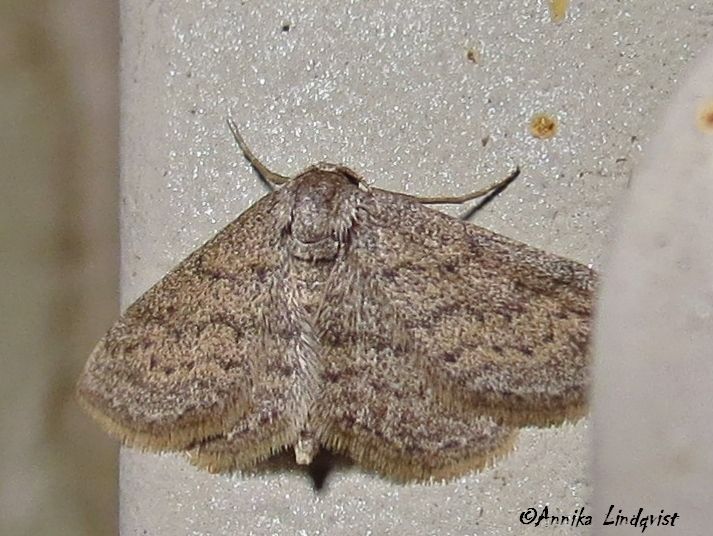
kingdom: Animalia
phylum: Arthropoda
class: Insecta
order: Lepidoptera
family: Geometridae
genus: Lobocleta
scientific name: Lobocleta ossularia
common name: Drab brown wave
